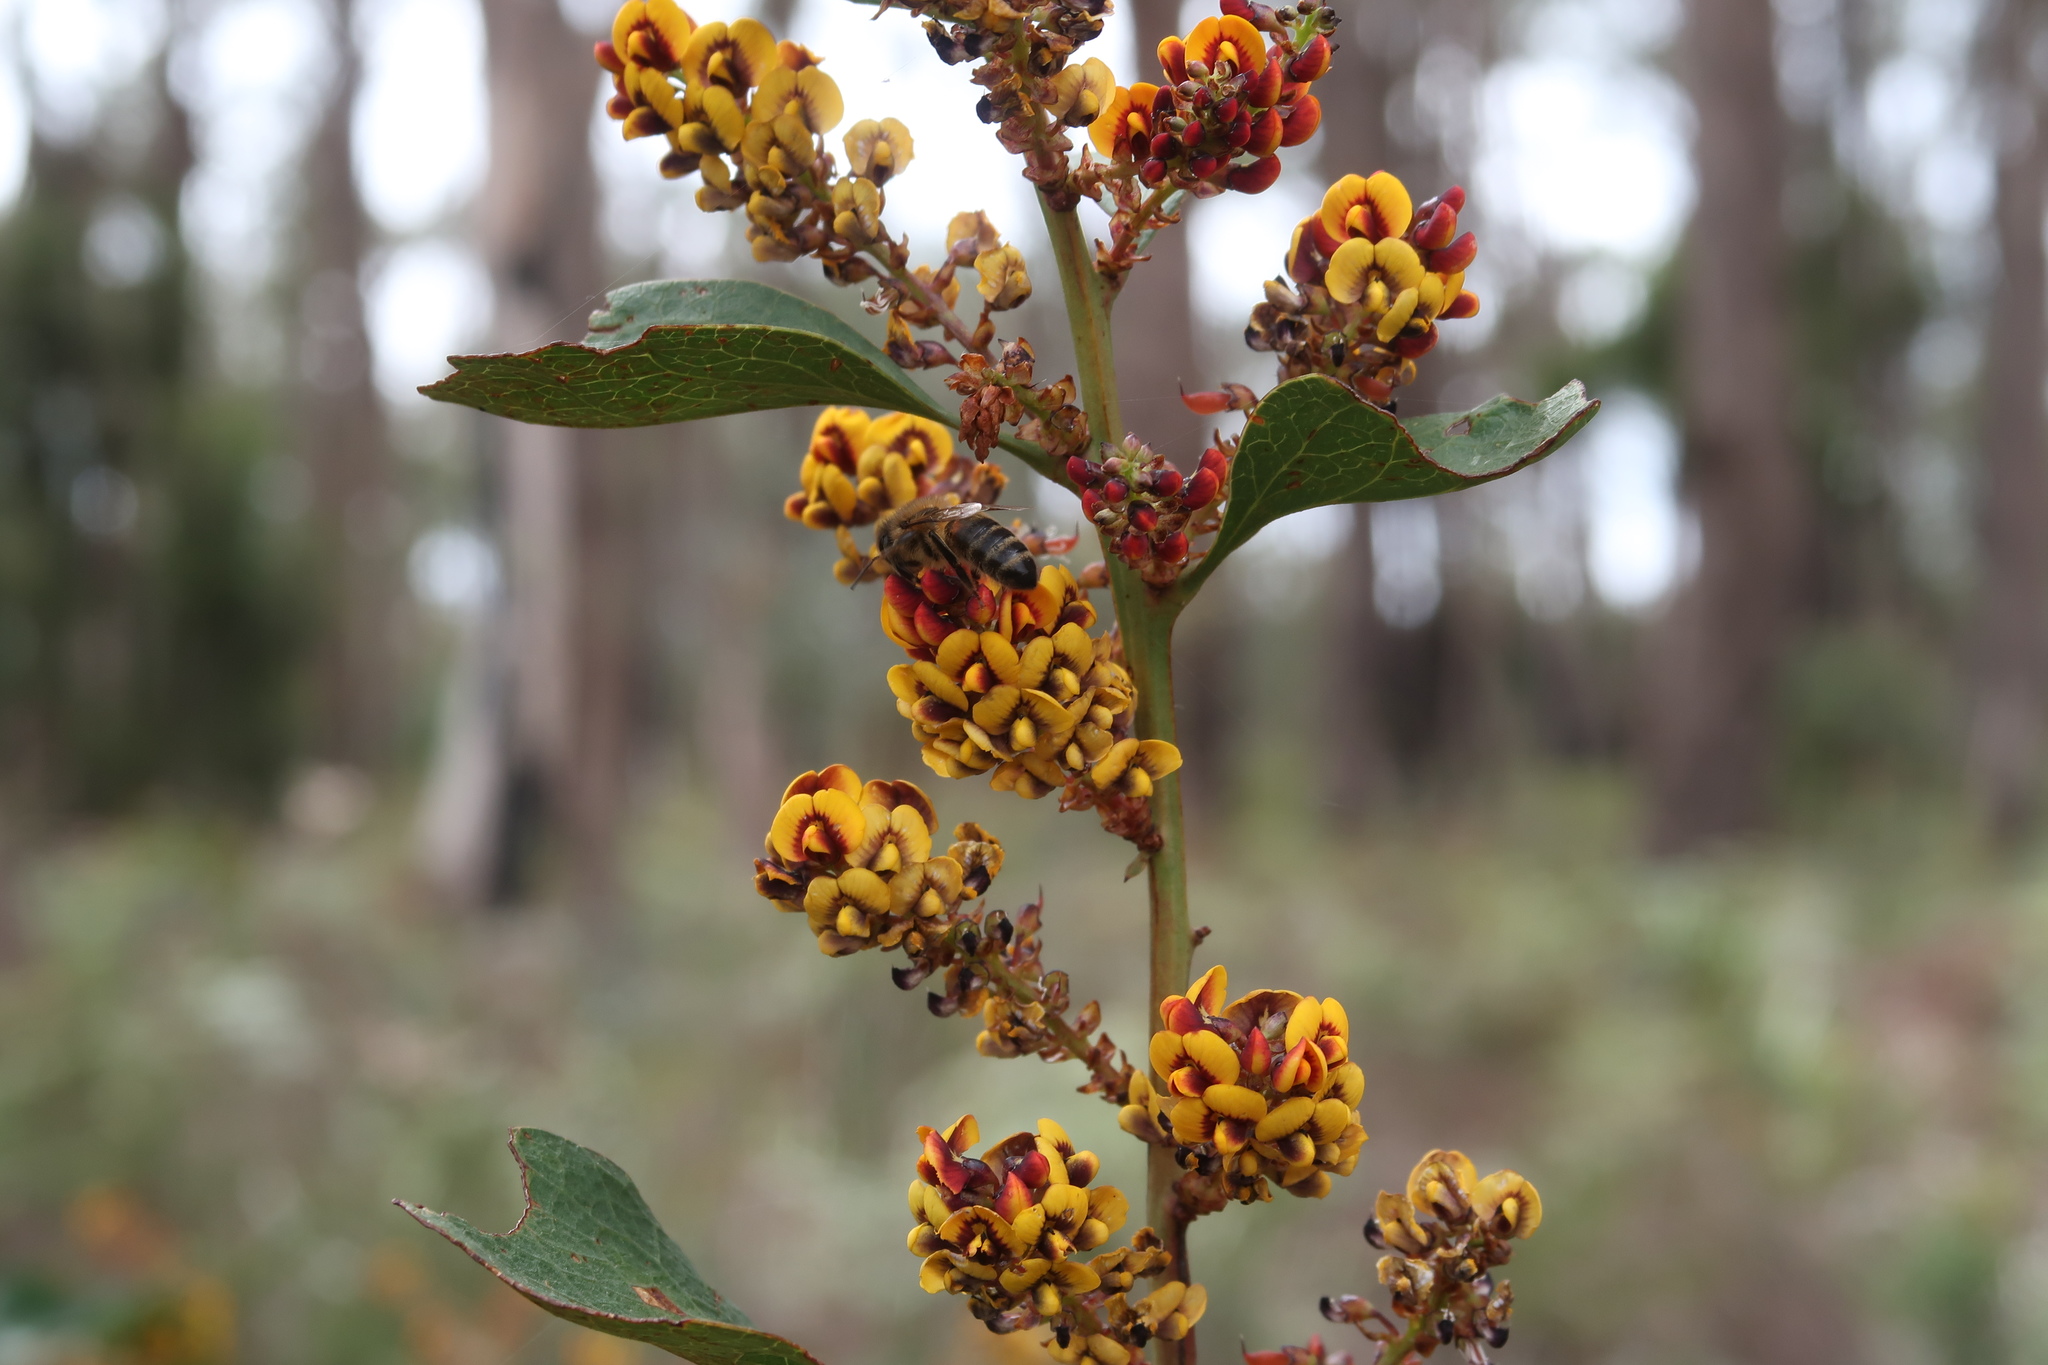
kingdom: Plantae
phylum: Tracheophyta
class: Magnoliopsida
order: Fabales
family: Fabaceae
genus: Daviesia
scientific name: Daviesia latifolia
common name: Hop bitter-pea
